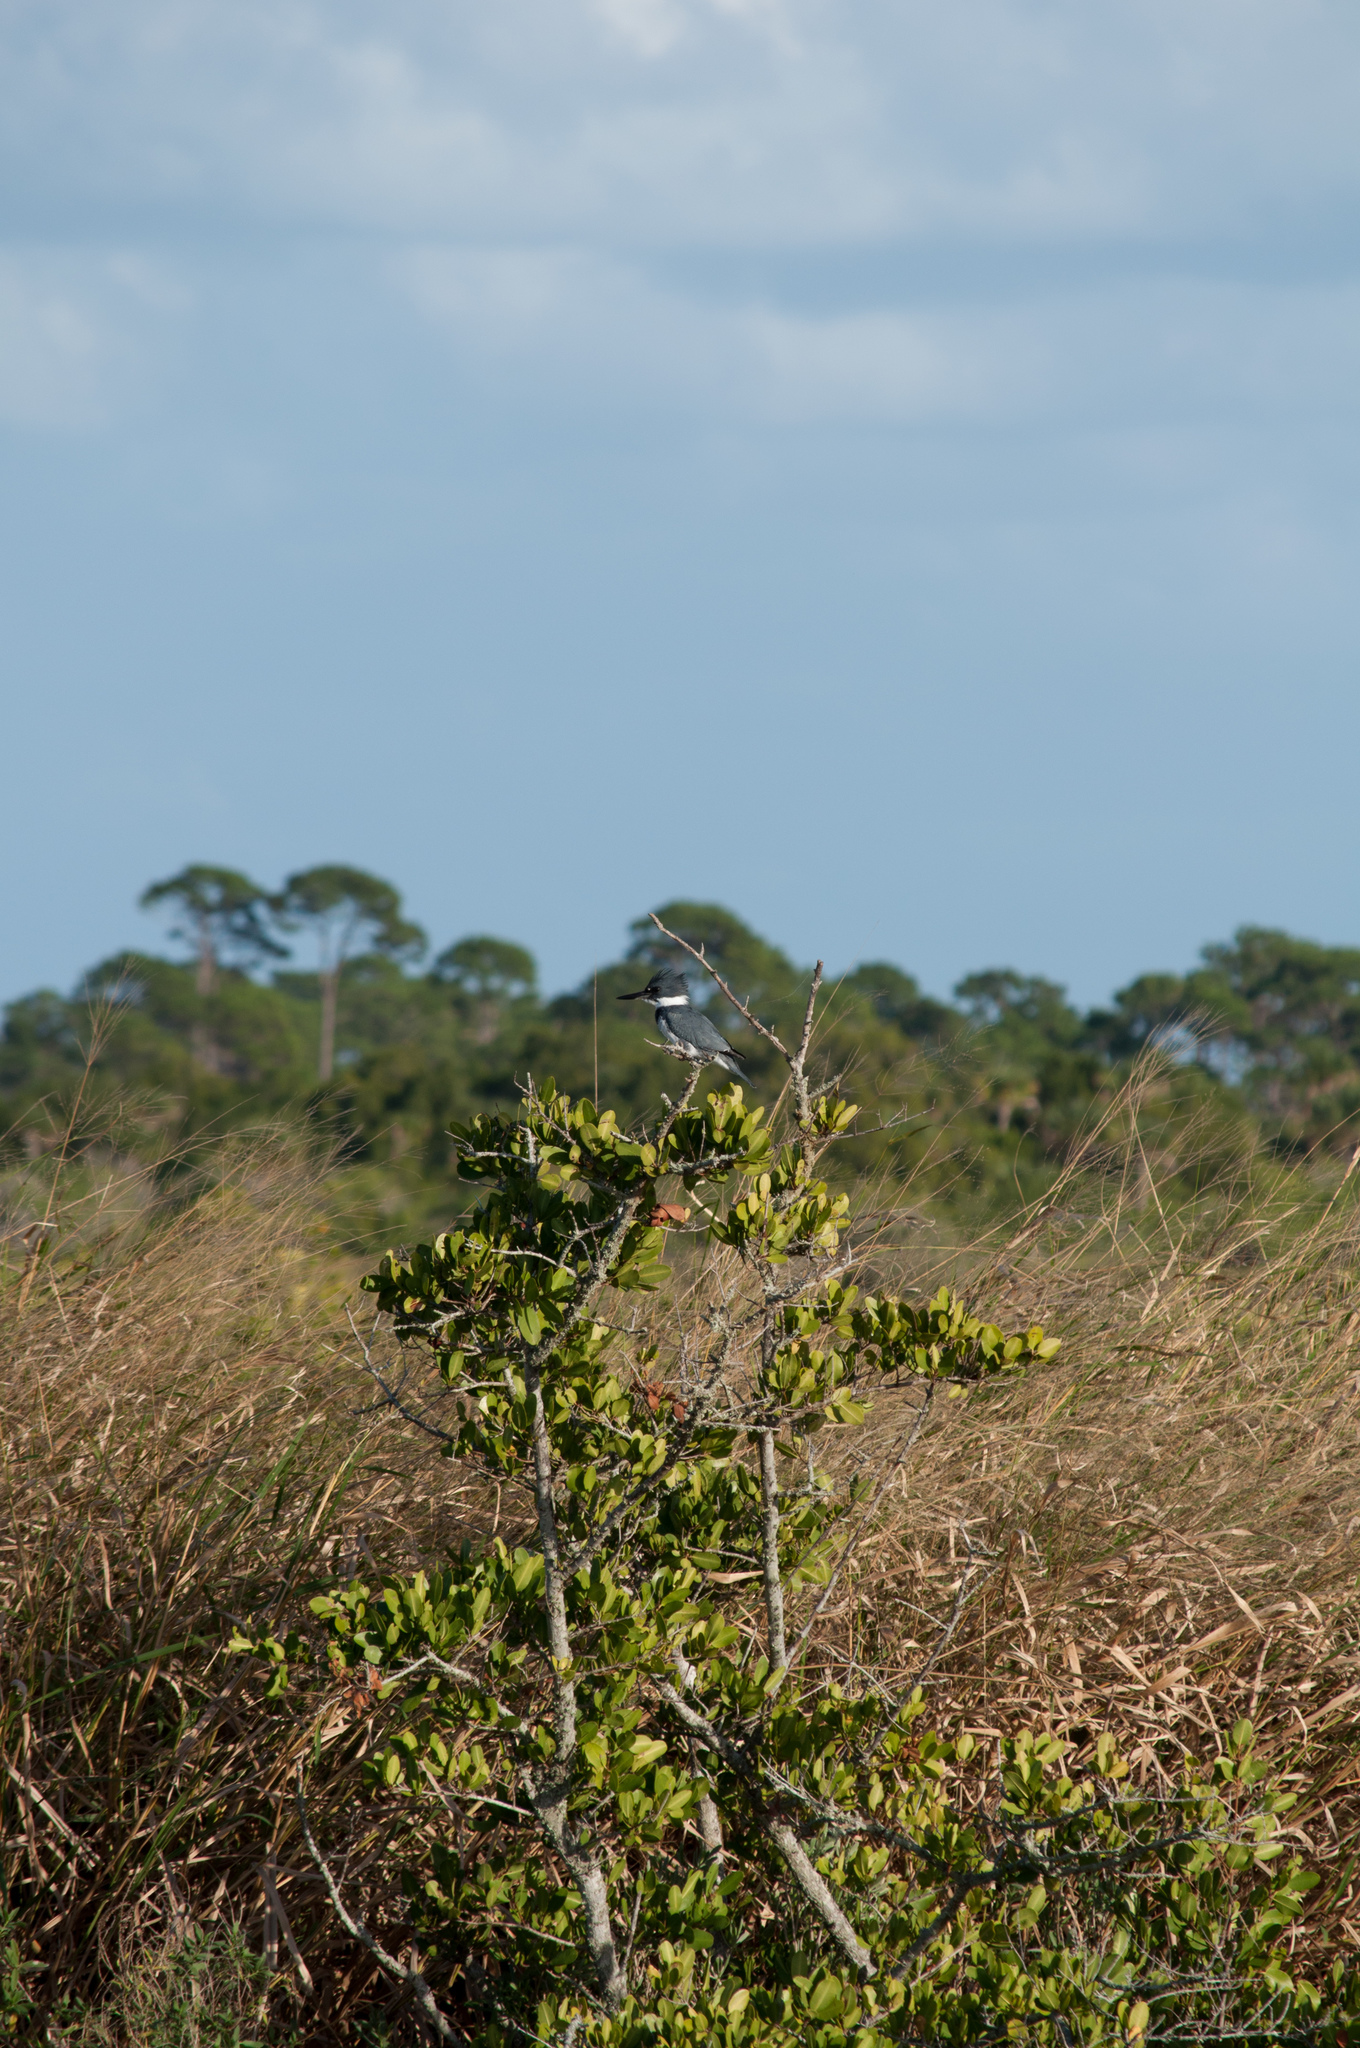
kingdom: Animalia
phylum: Chordata
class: Aves
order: Coraciiformes
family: Alcedinidae
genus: Megaceryle
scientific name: Megaceryle alcyon
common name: Belted kingfisher
